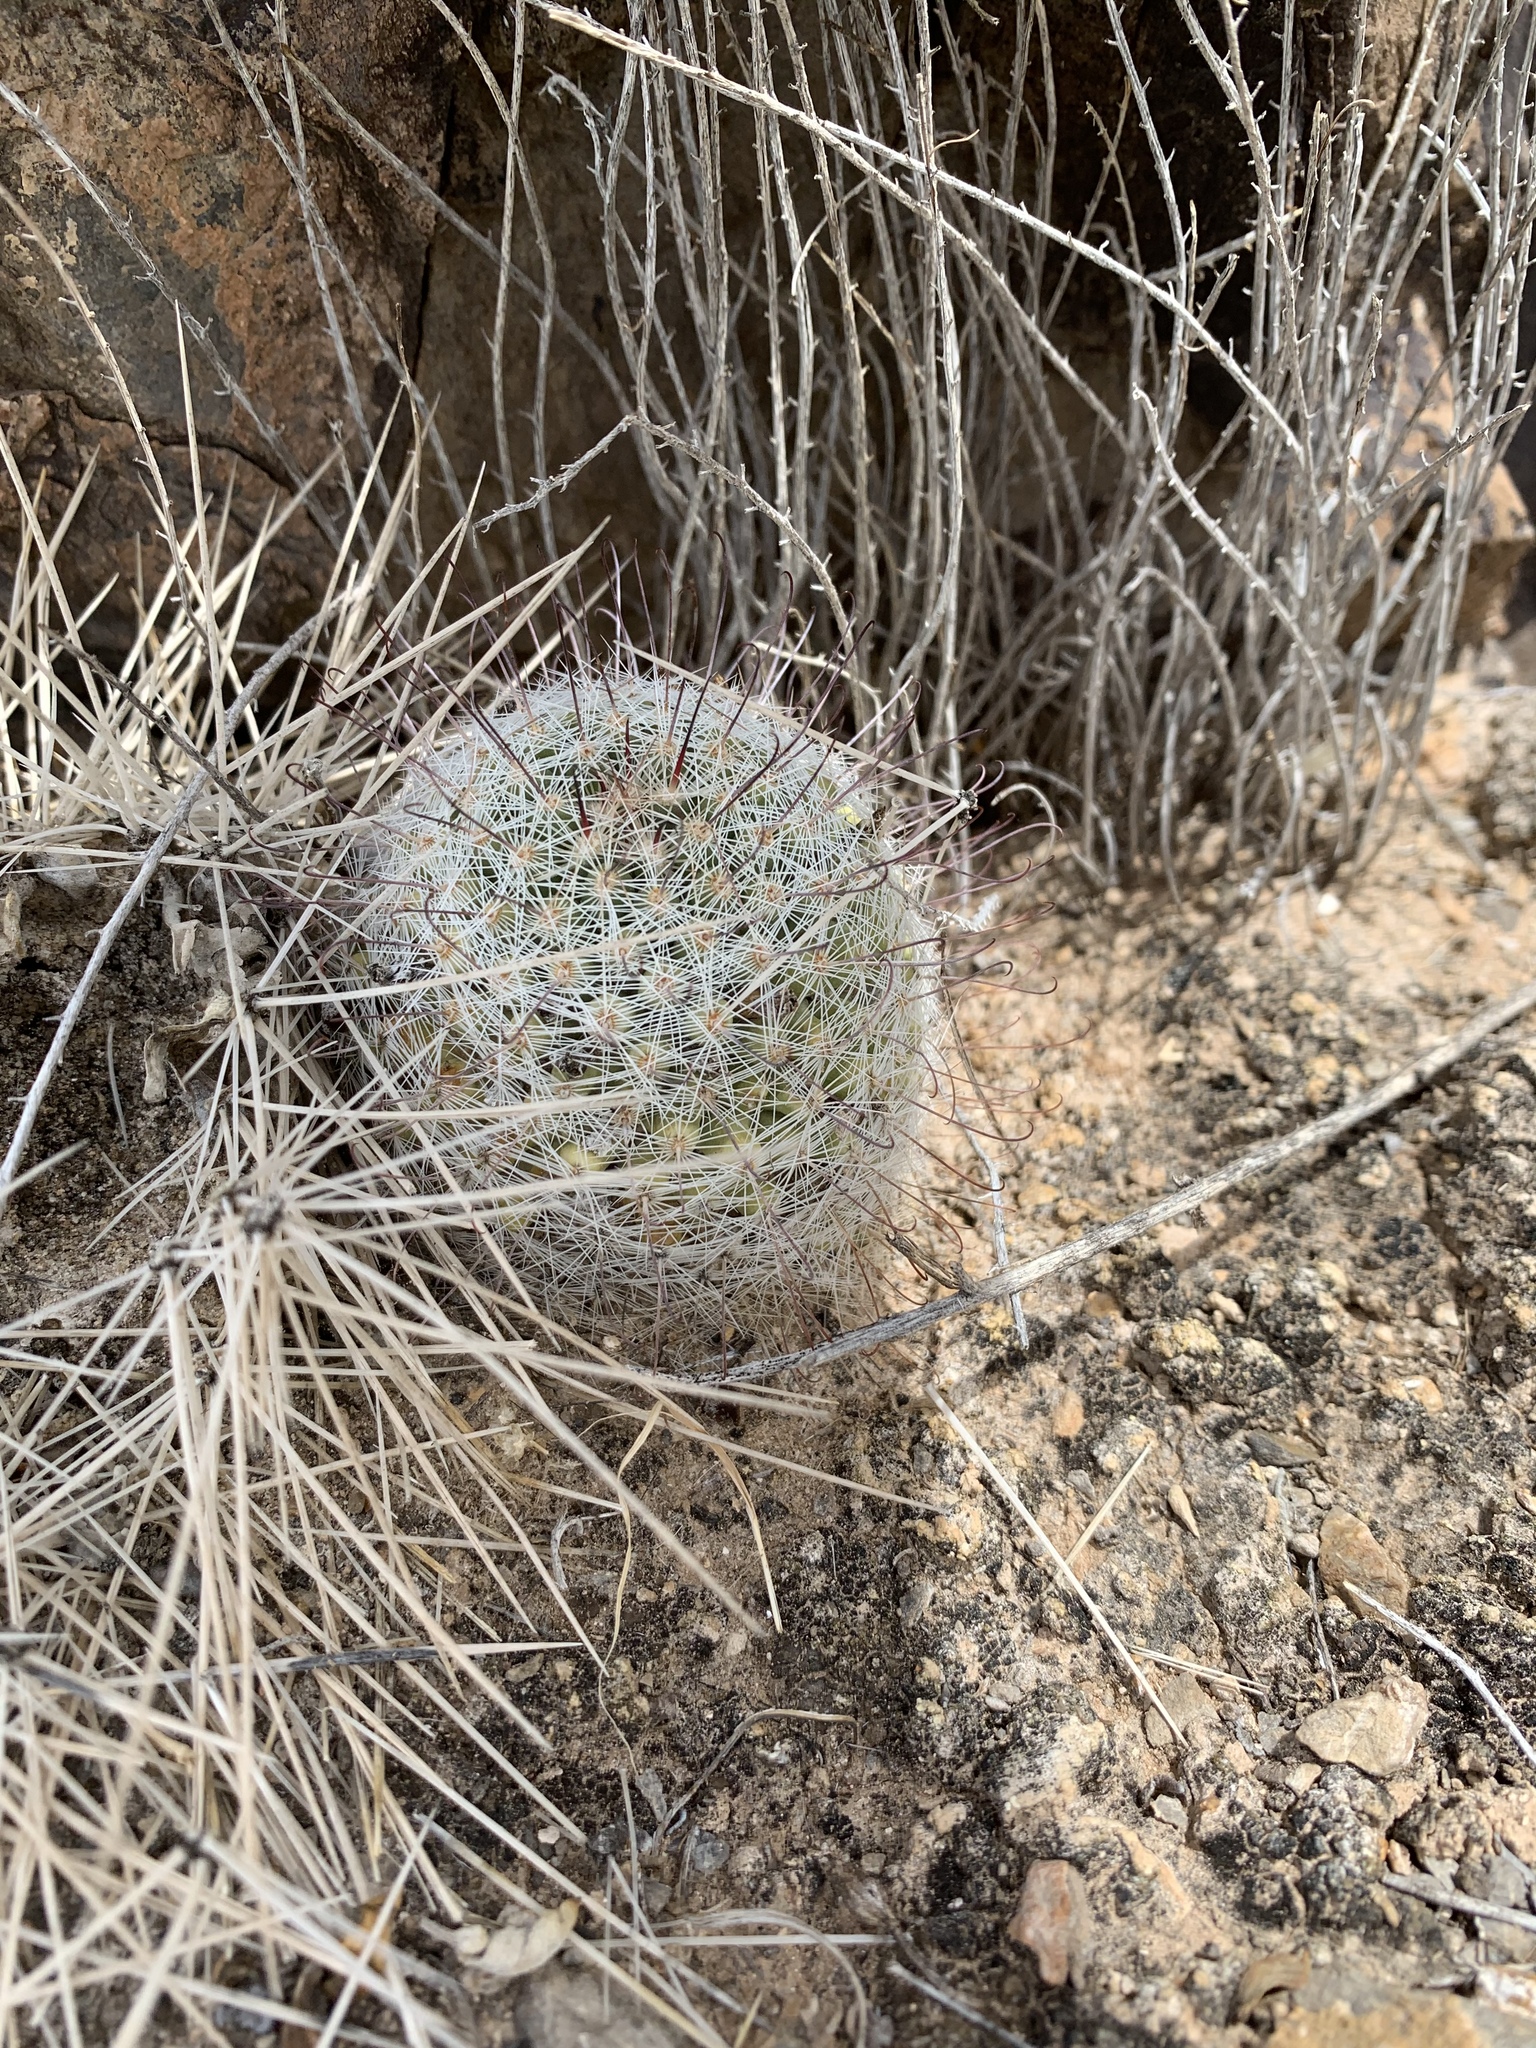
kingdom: Plantae
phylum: Tracheophyta
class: Magnoliopsida
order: Caryophyllales
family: Cactaceae
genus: Cochemiea
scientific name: Cochemiea grahamii
